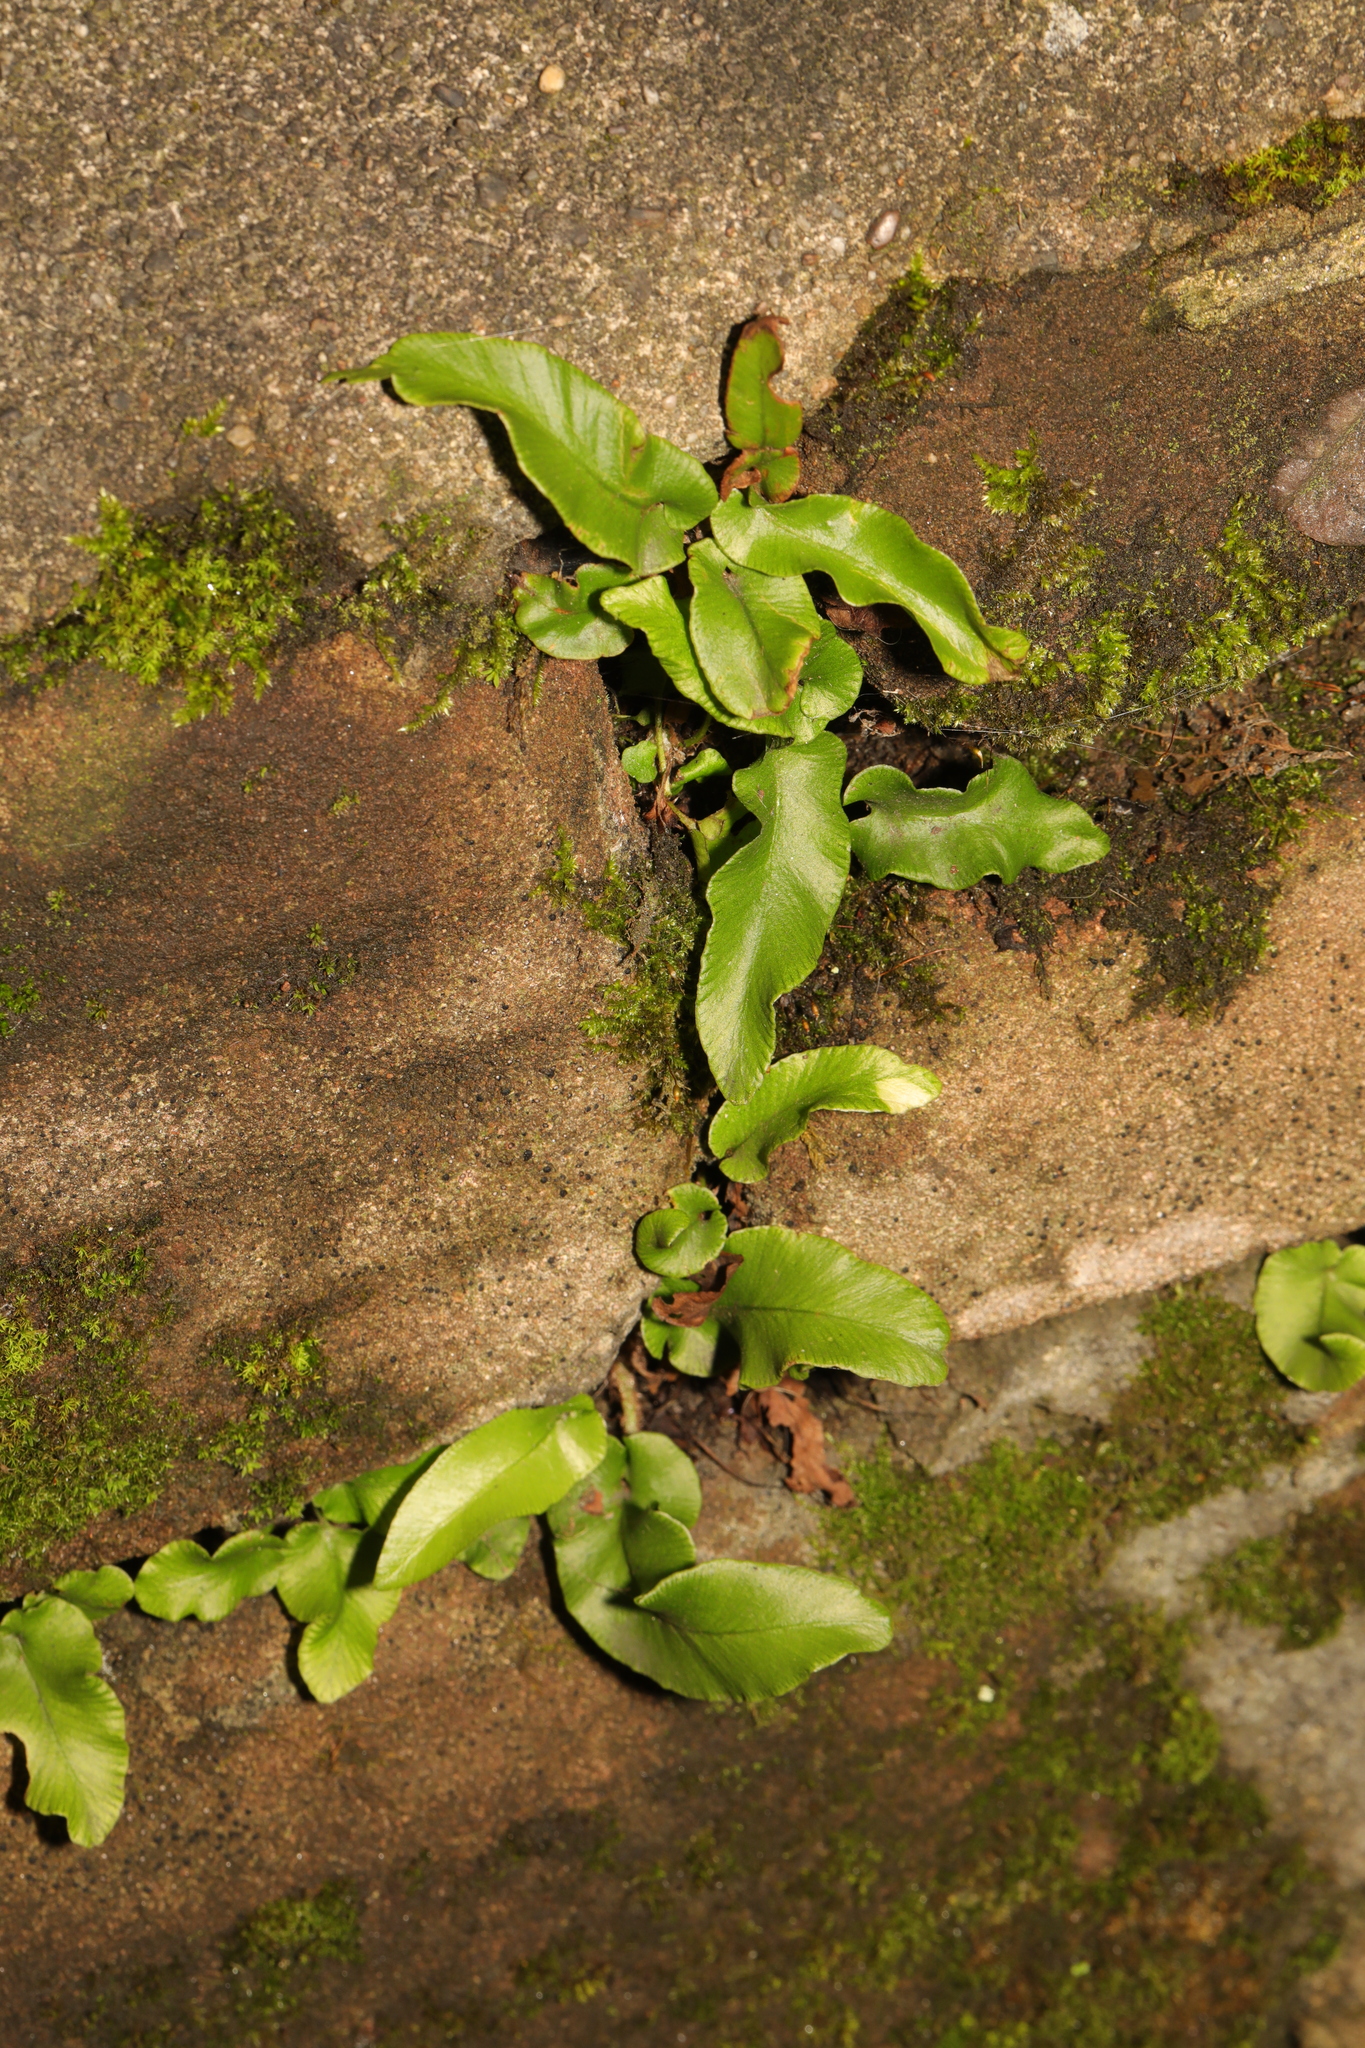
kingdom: Plantae
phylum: Tracheophyta
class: Polypodiopsida
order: Polypodiales
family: Aspleniaceae
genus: Asplenium
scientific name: Asplenium scolopendrium
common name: Hart's-tongue fern
